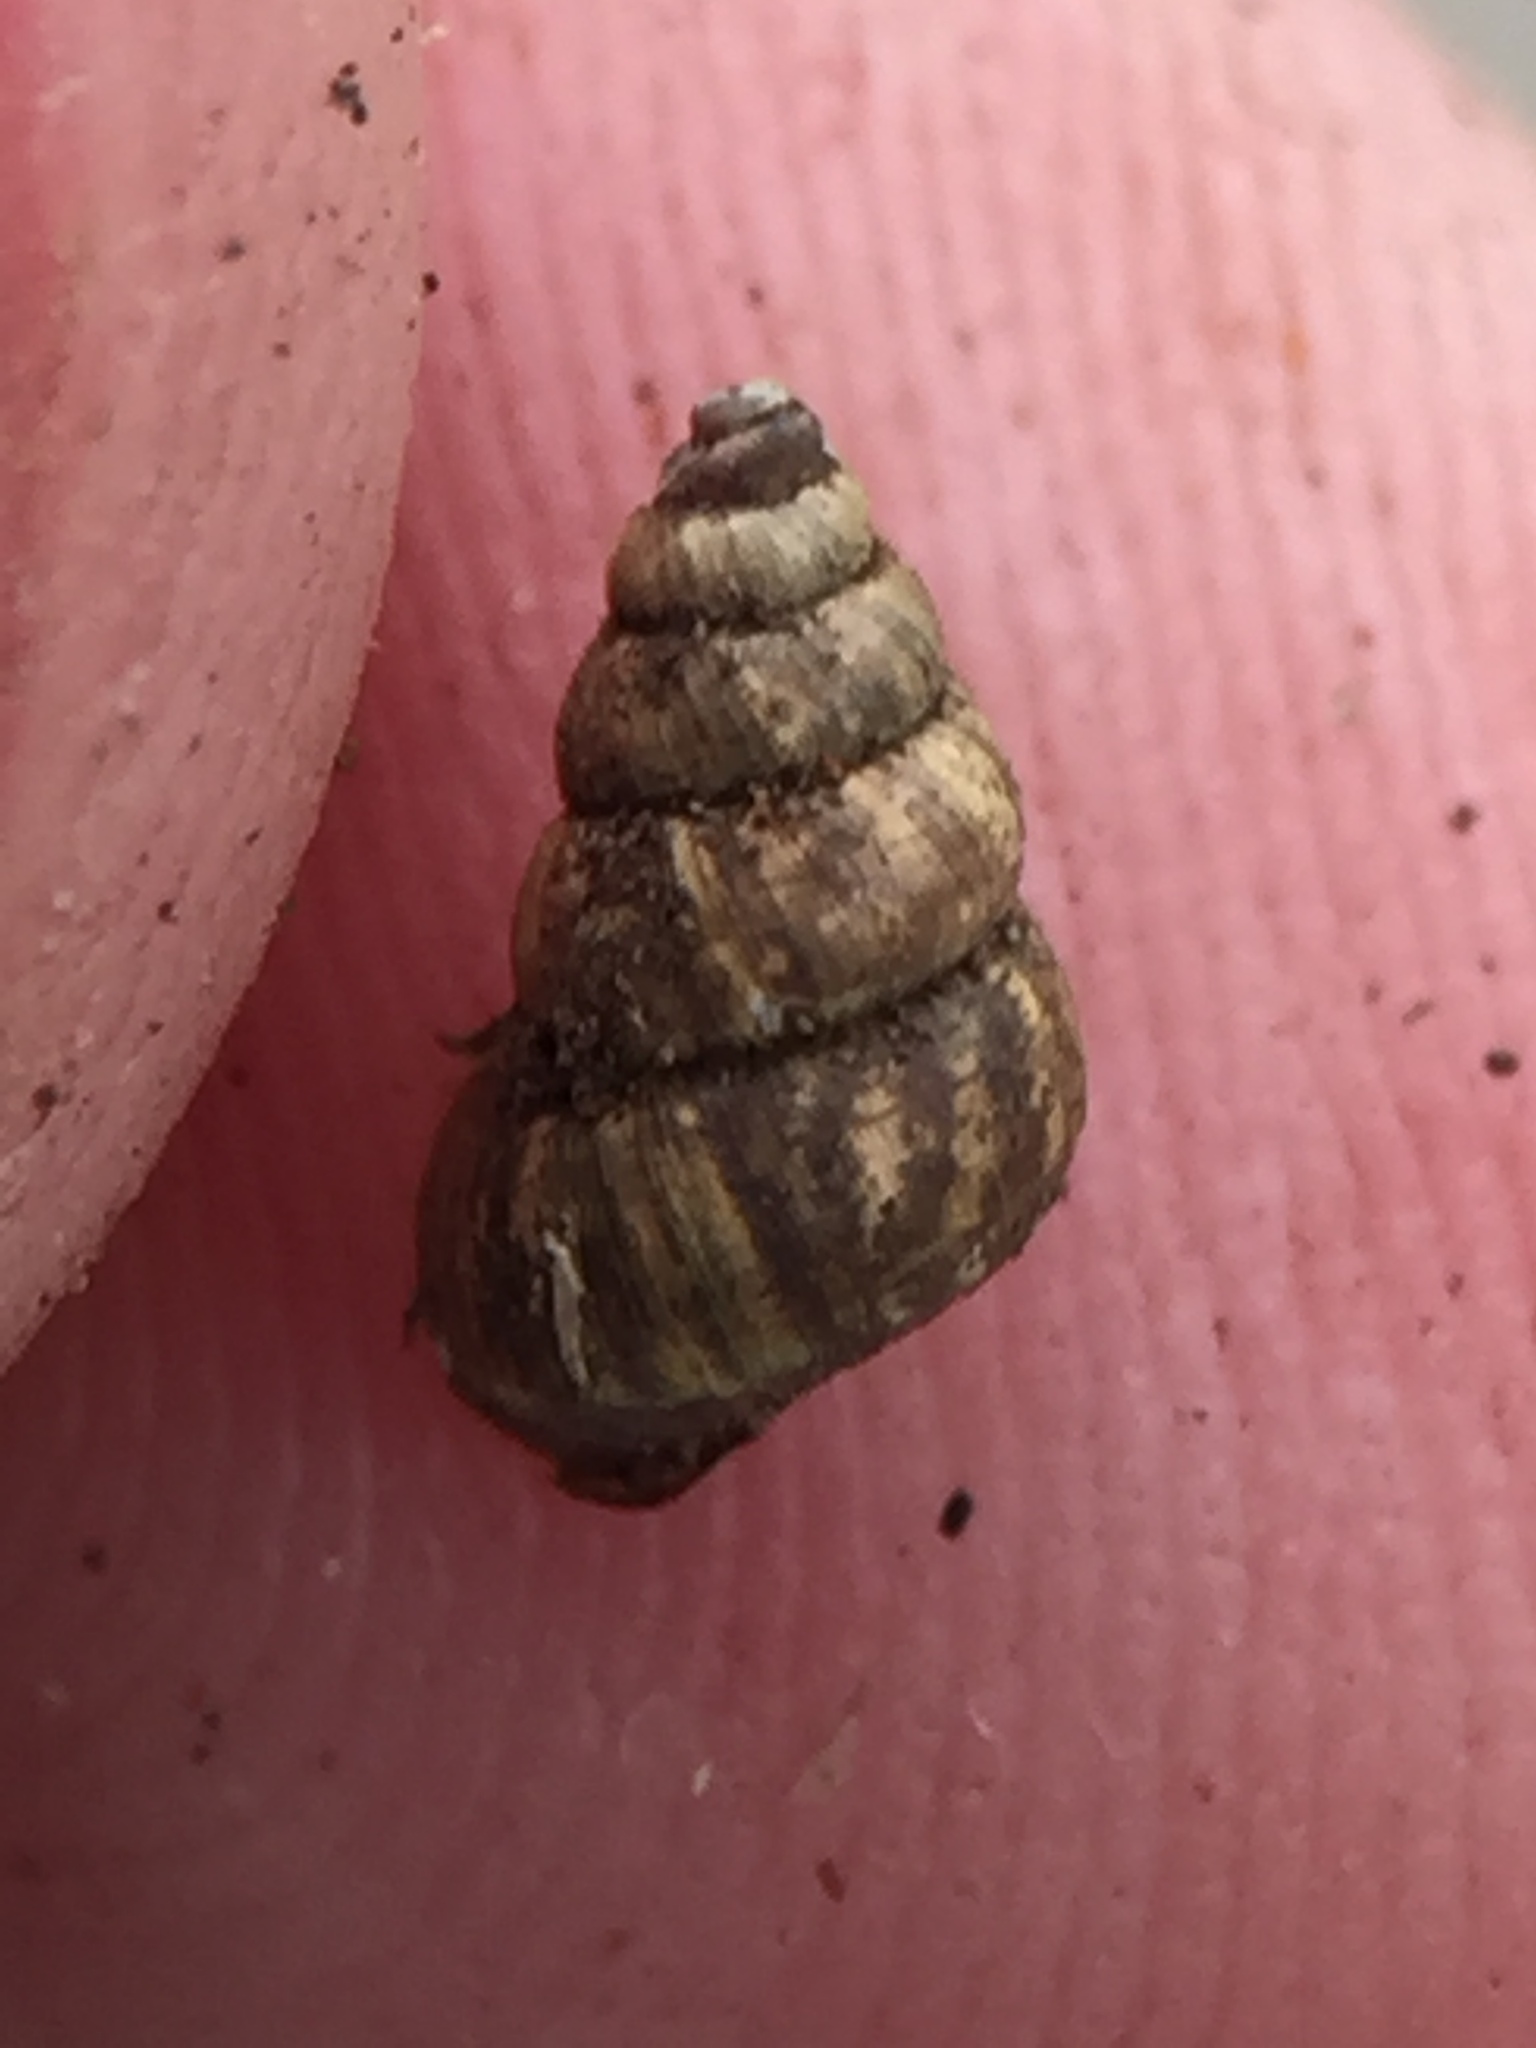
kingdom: Animalia
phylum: Mollusca
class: Gastropoda
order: Architaenioglossa
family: Pupinidae
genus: Liarea
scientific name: Liarea egea
